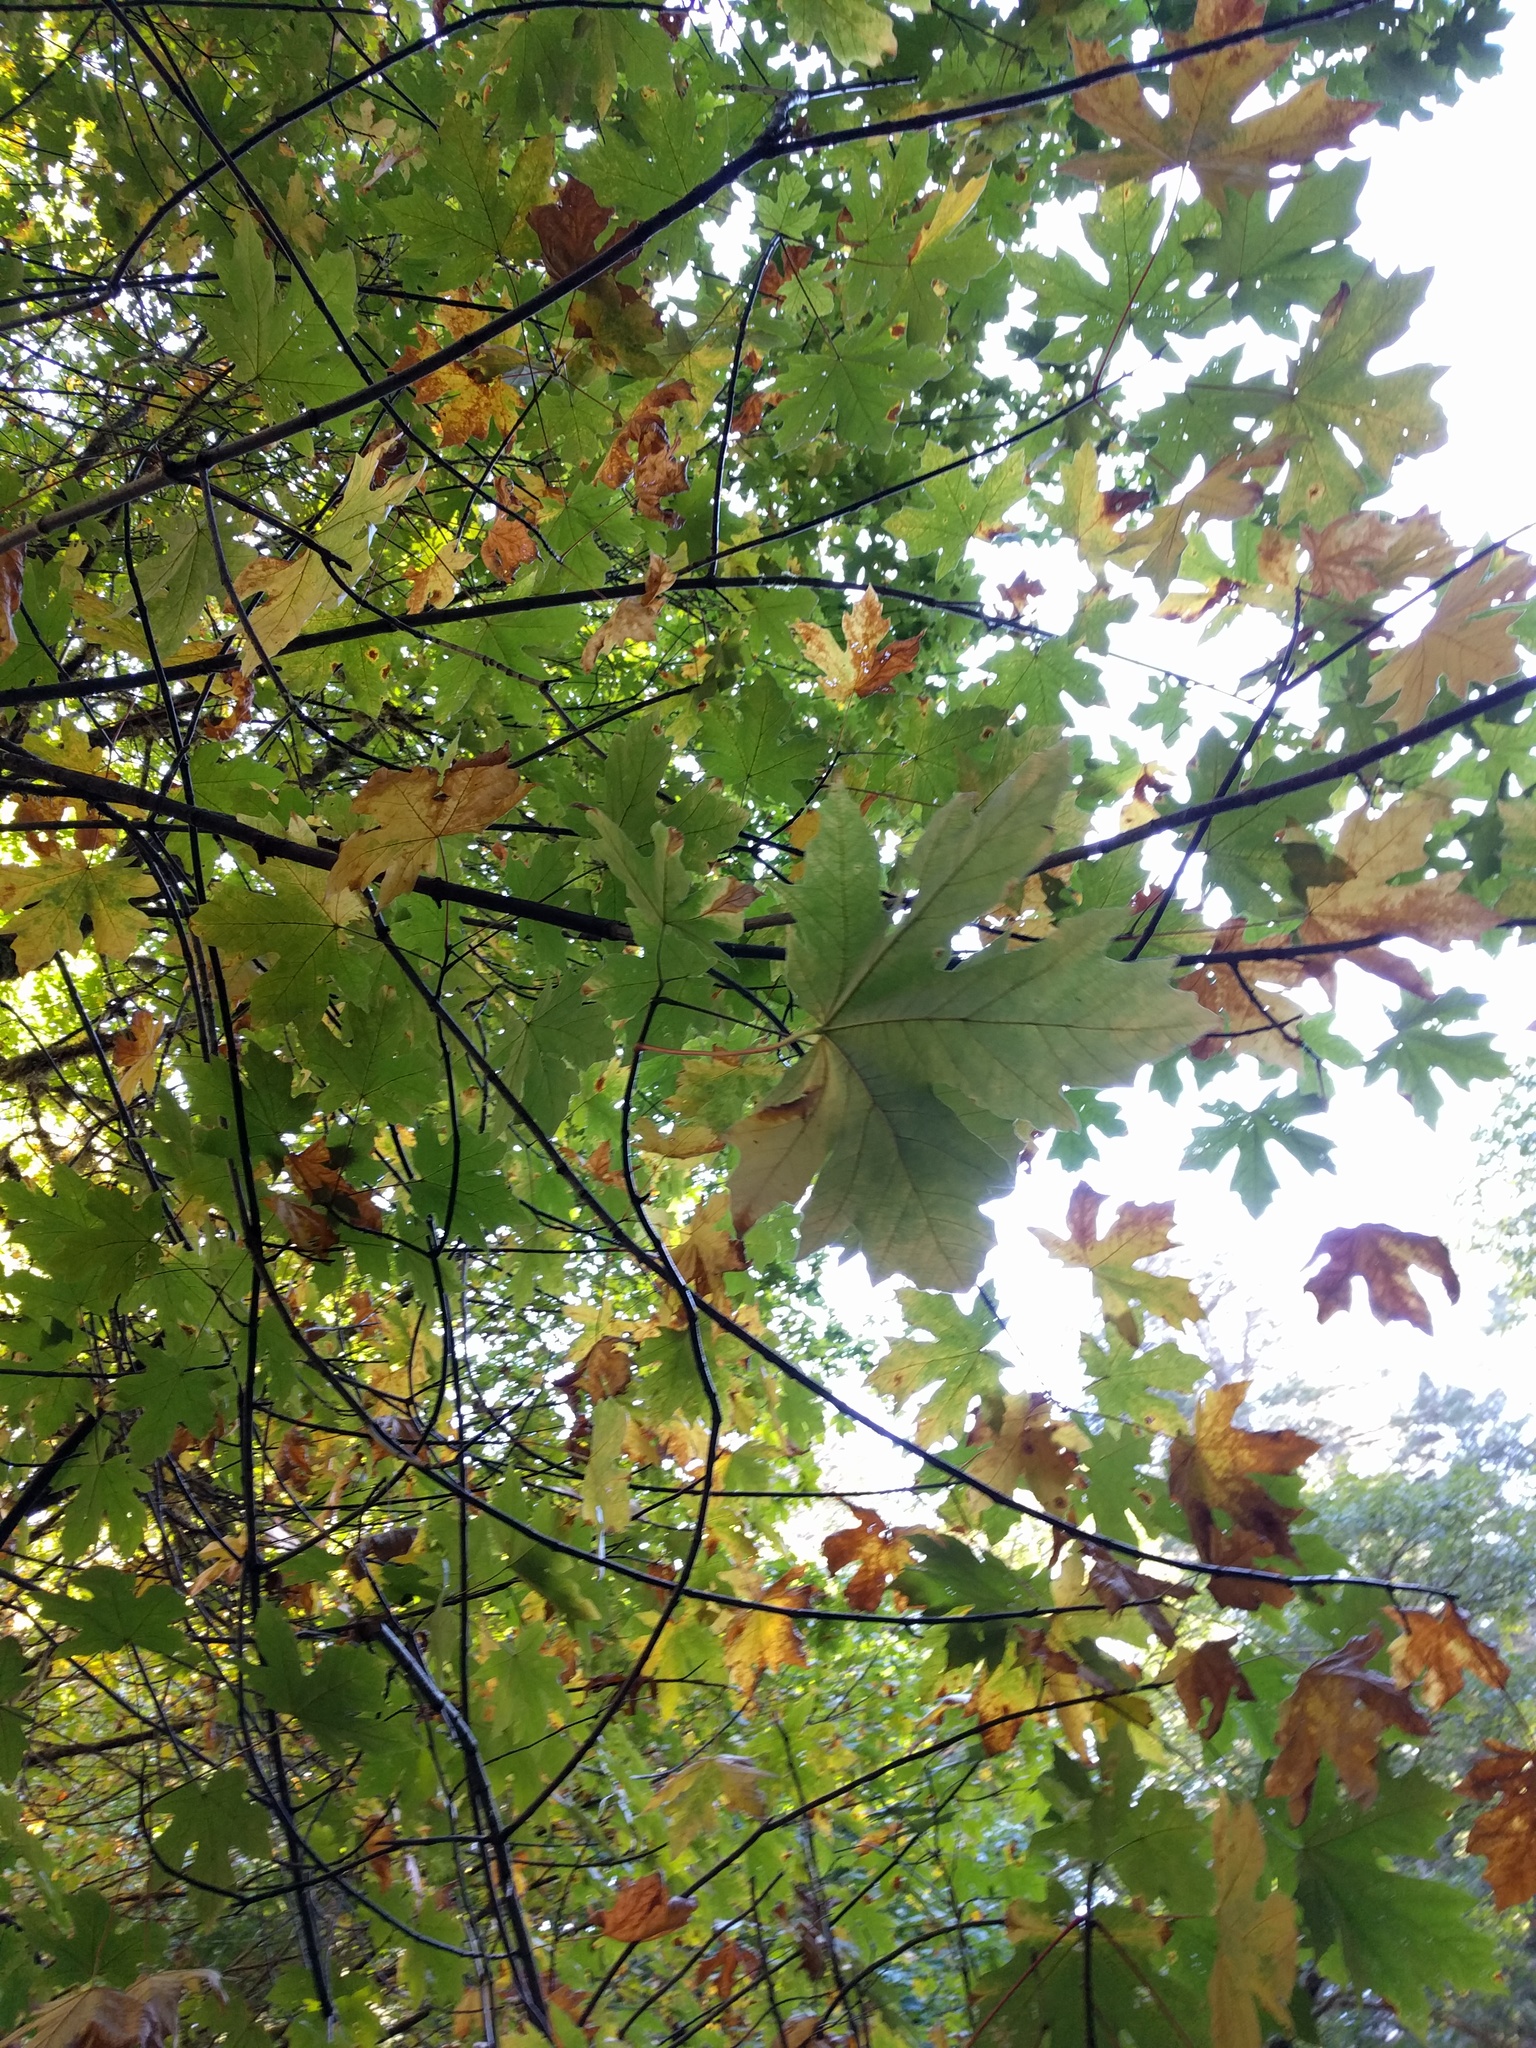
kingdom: Plantae
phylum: Tracheophyta
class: Magnoliopsida
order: Sapindales
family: Sapindaceae
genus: Acer
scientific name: Acer macrophyllum
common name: Oregon maple
